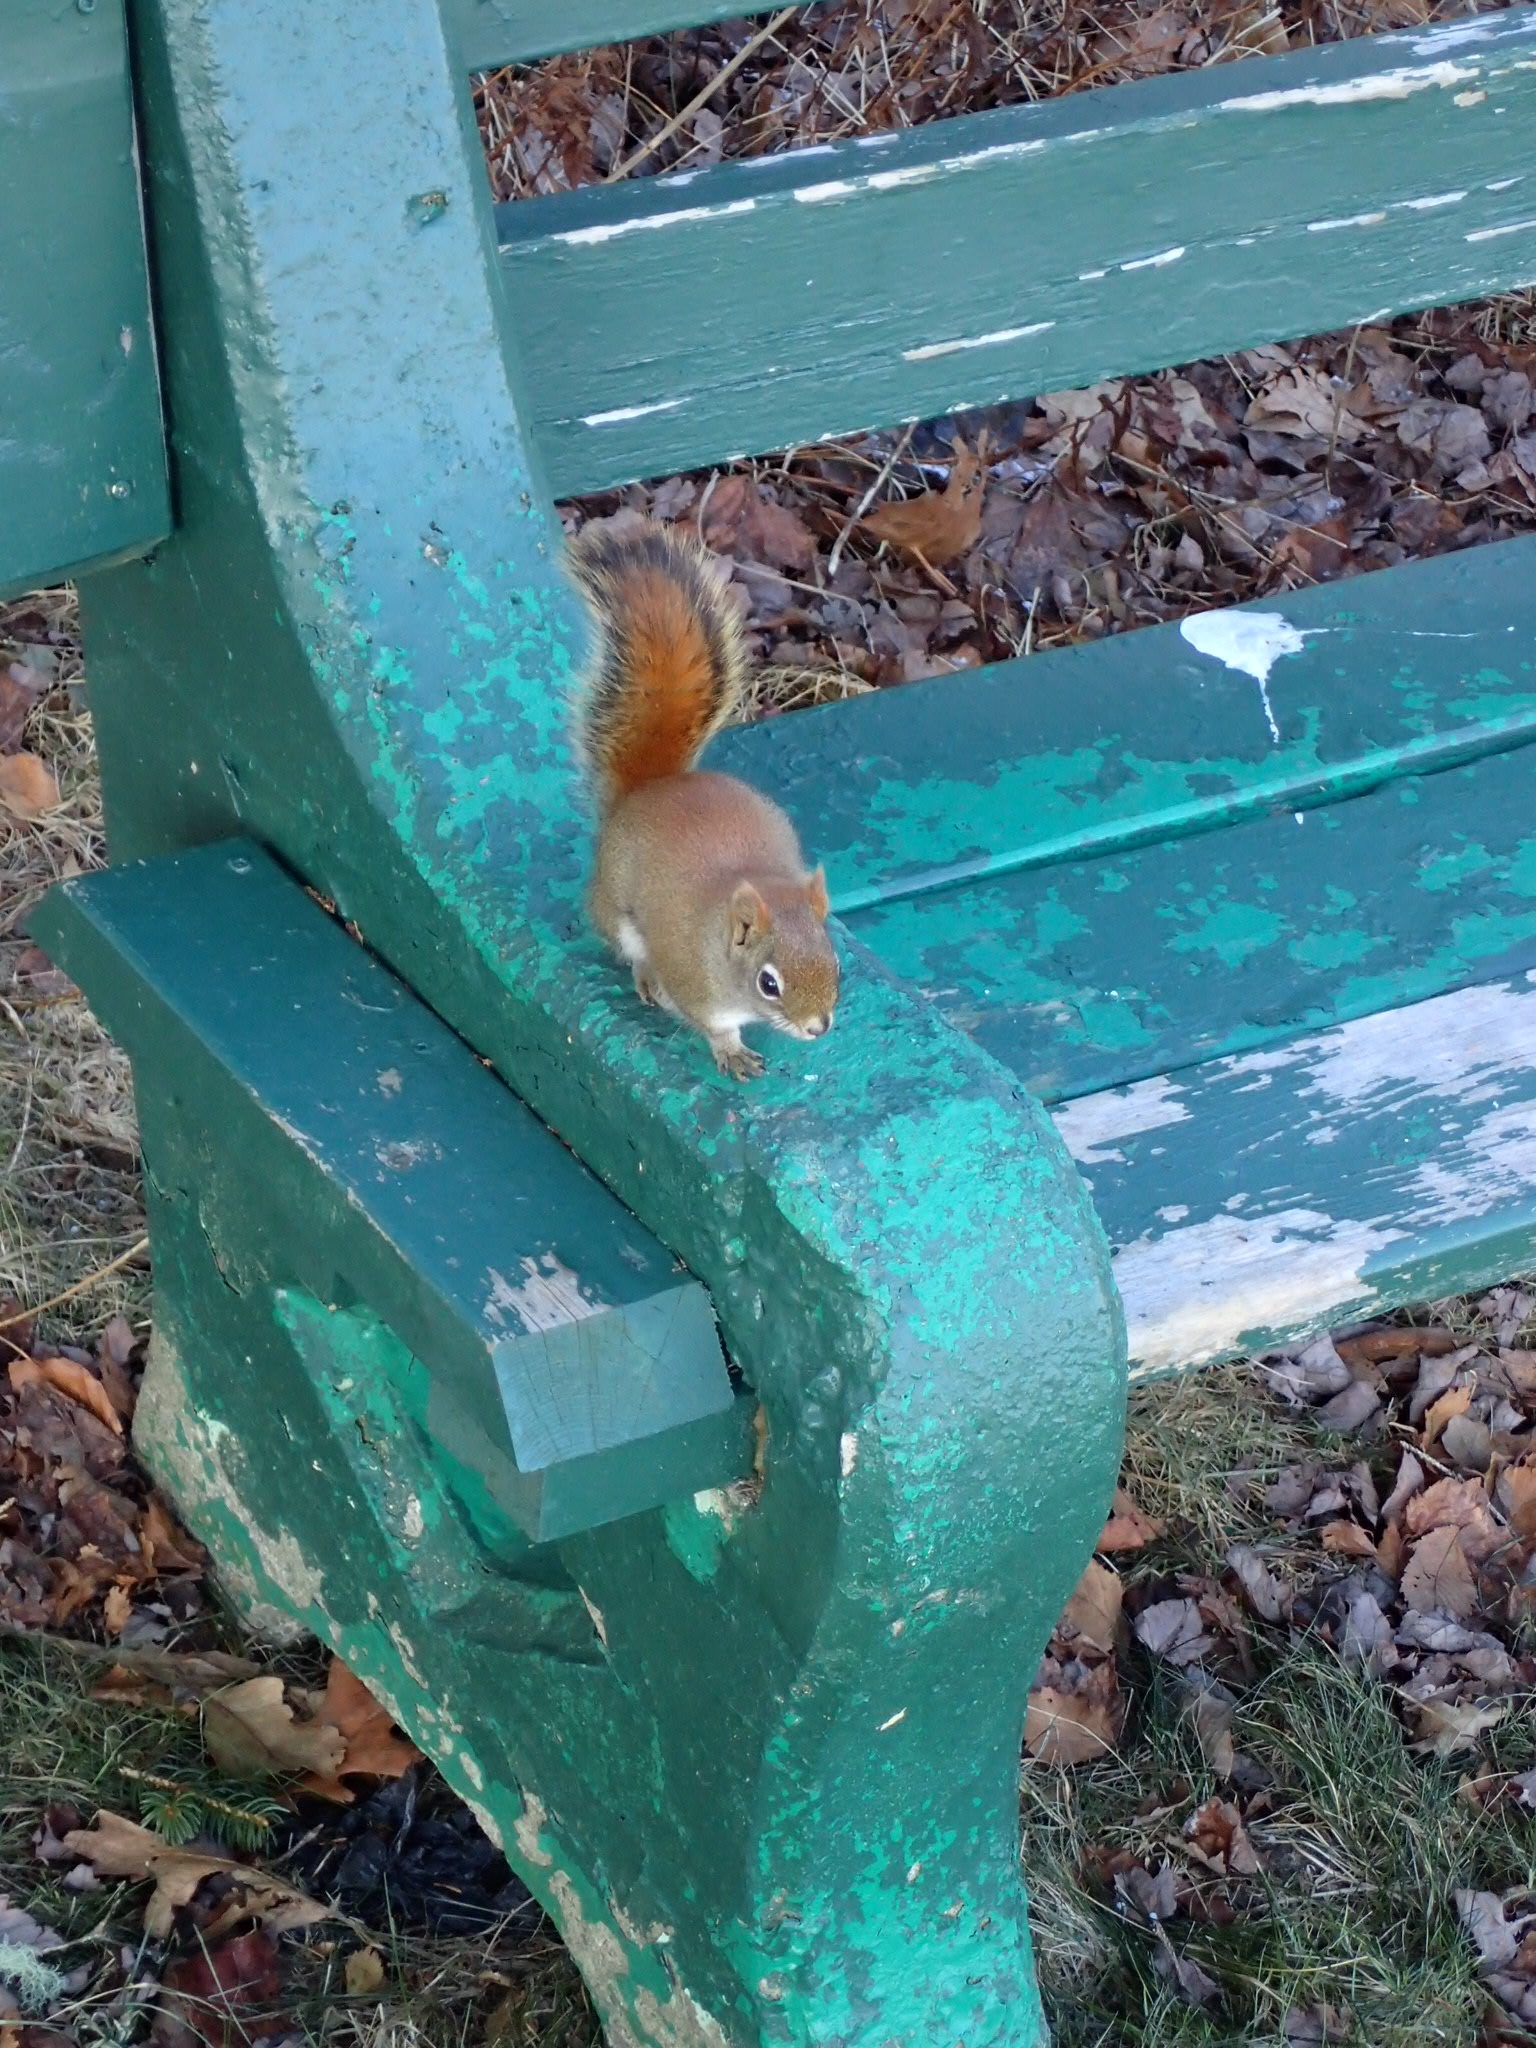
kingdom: Animalia
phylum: Chordata
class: Mammalia
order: Rodentia
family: Sciuridae
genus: Tamiasciurus
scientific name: Tamiasciurus hudsonicus
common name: Red squirrel
